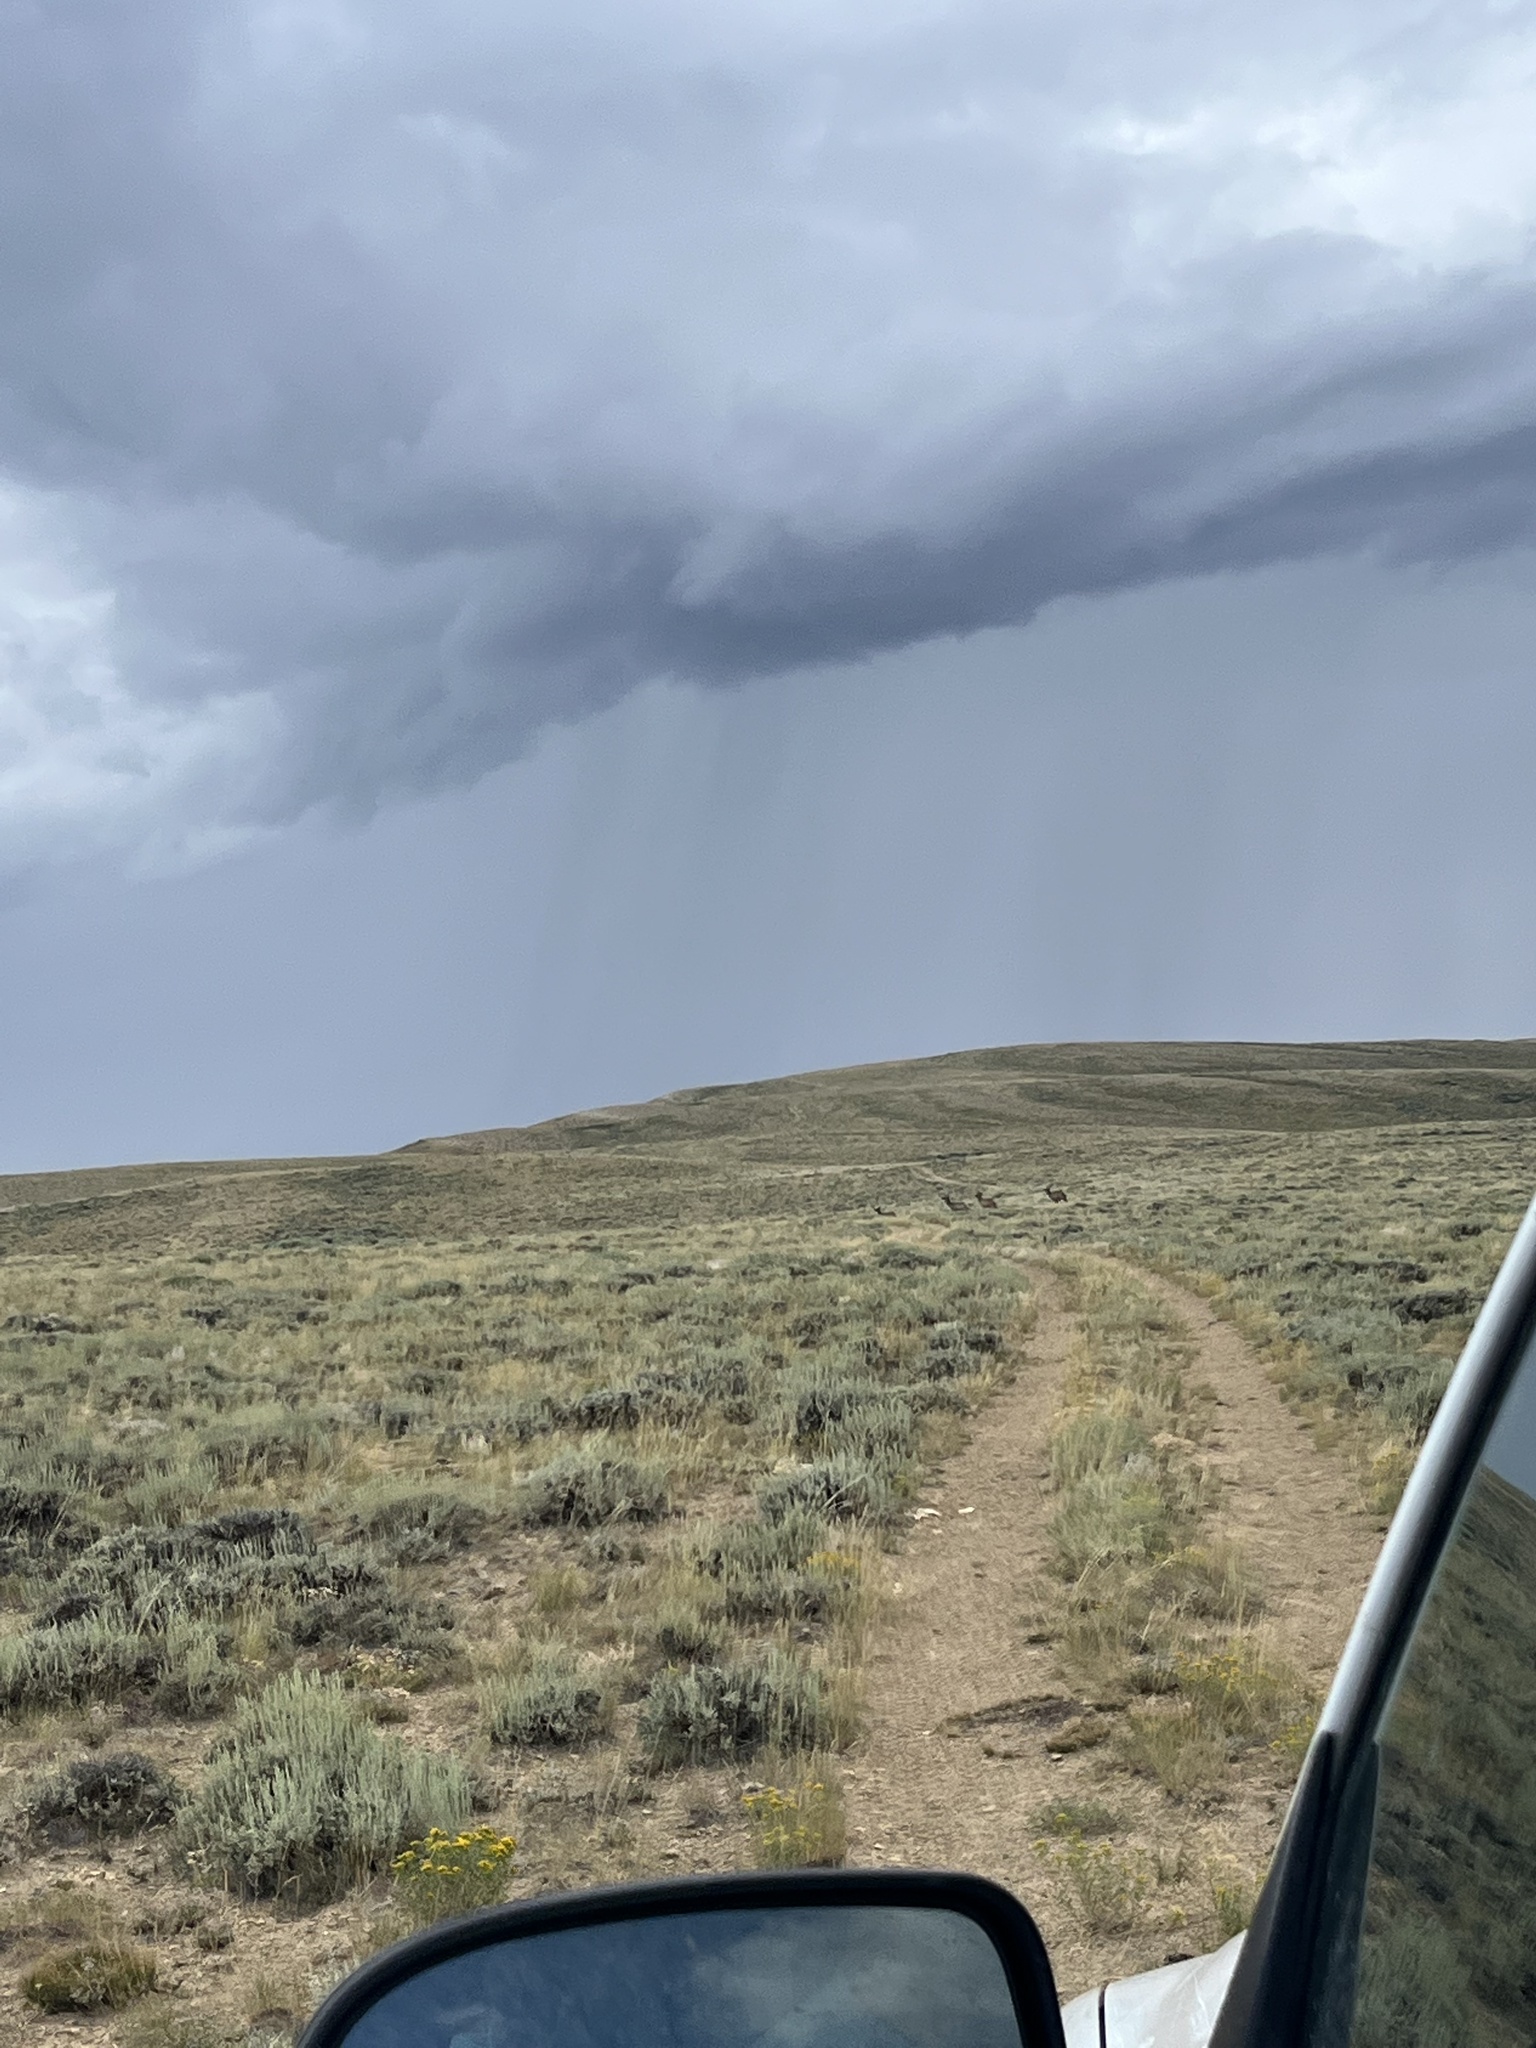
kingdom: Animalia
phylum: Chordata
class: Mammalia
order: Artiodactyla
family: Cervidae
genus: Cervus
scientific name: Cervus elaphus
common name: Red deer
